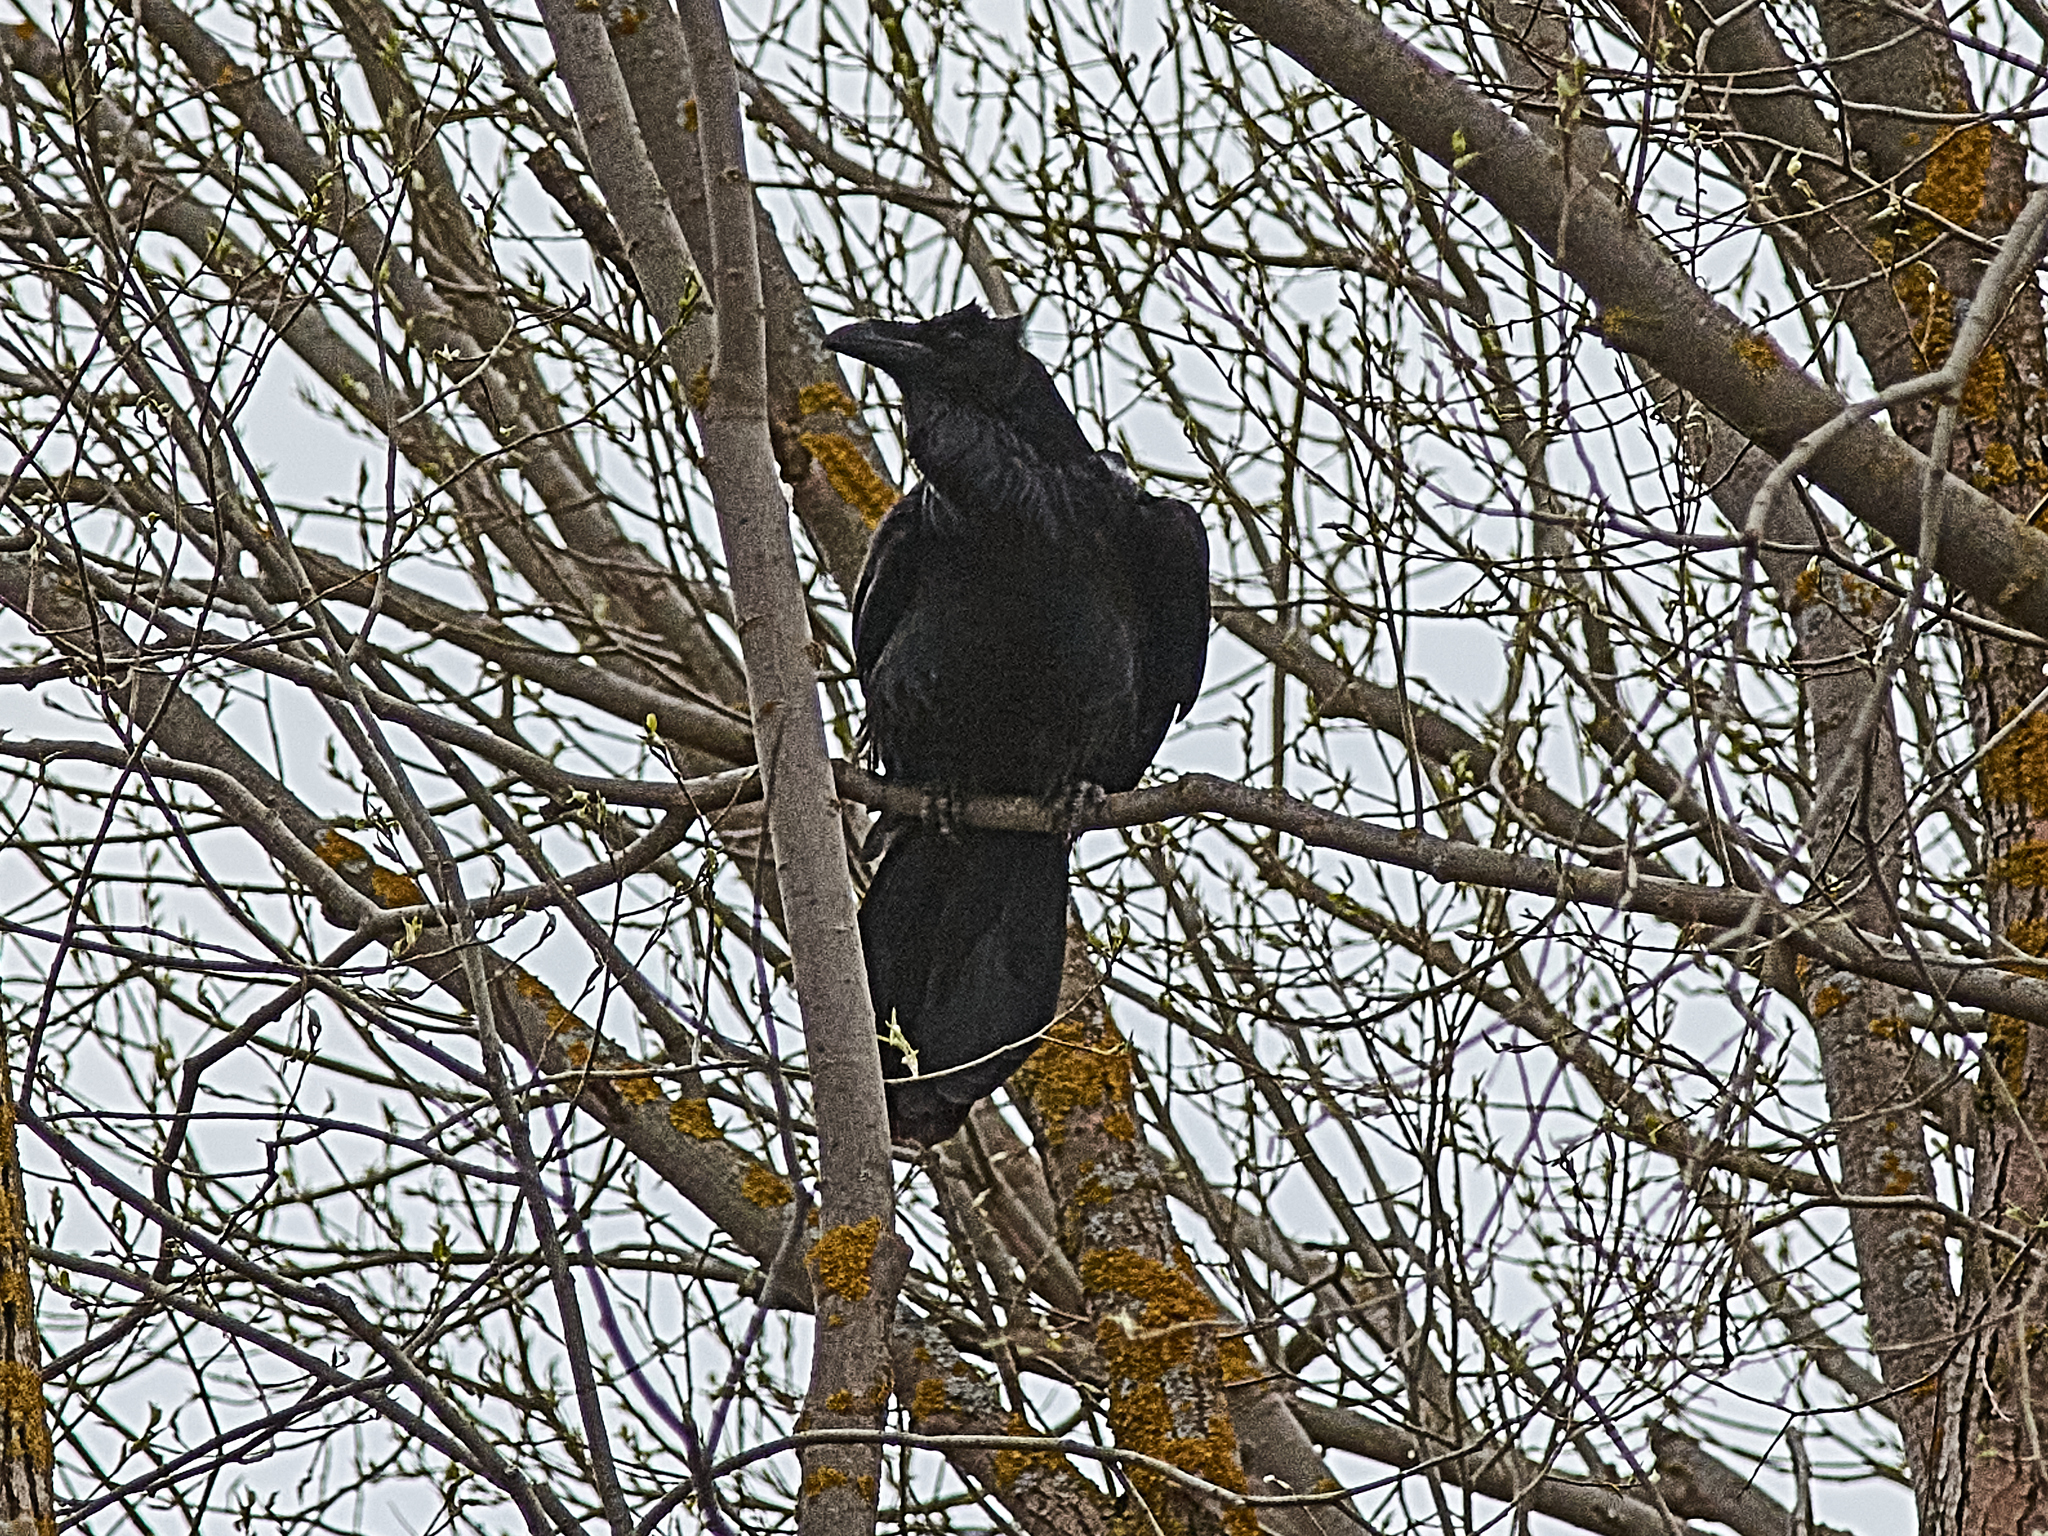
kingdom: Animalia
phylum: Chordata
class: Aves
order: Passeriformes
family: Corvidae
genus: Corvus
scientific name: Corvus corax
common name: Common raven
